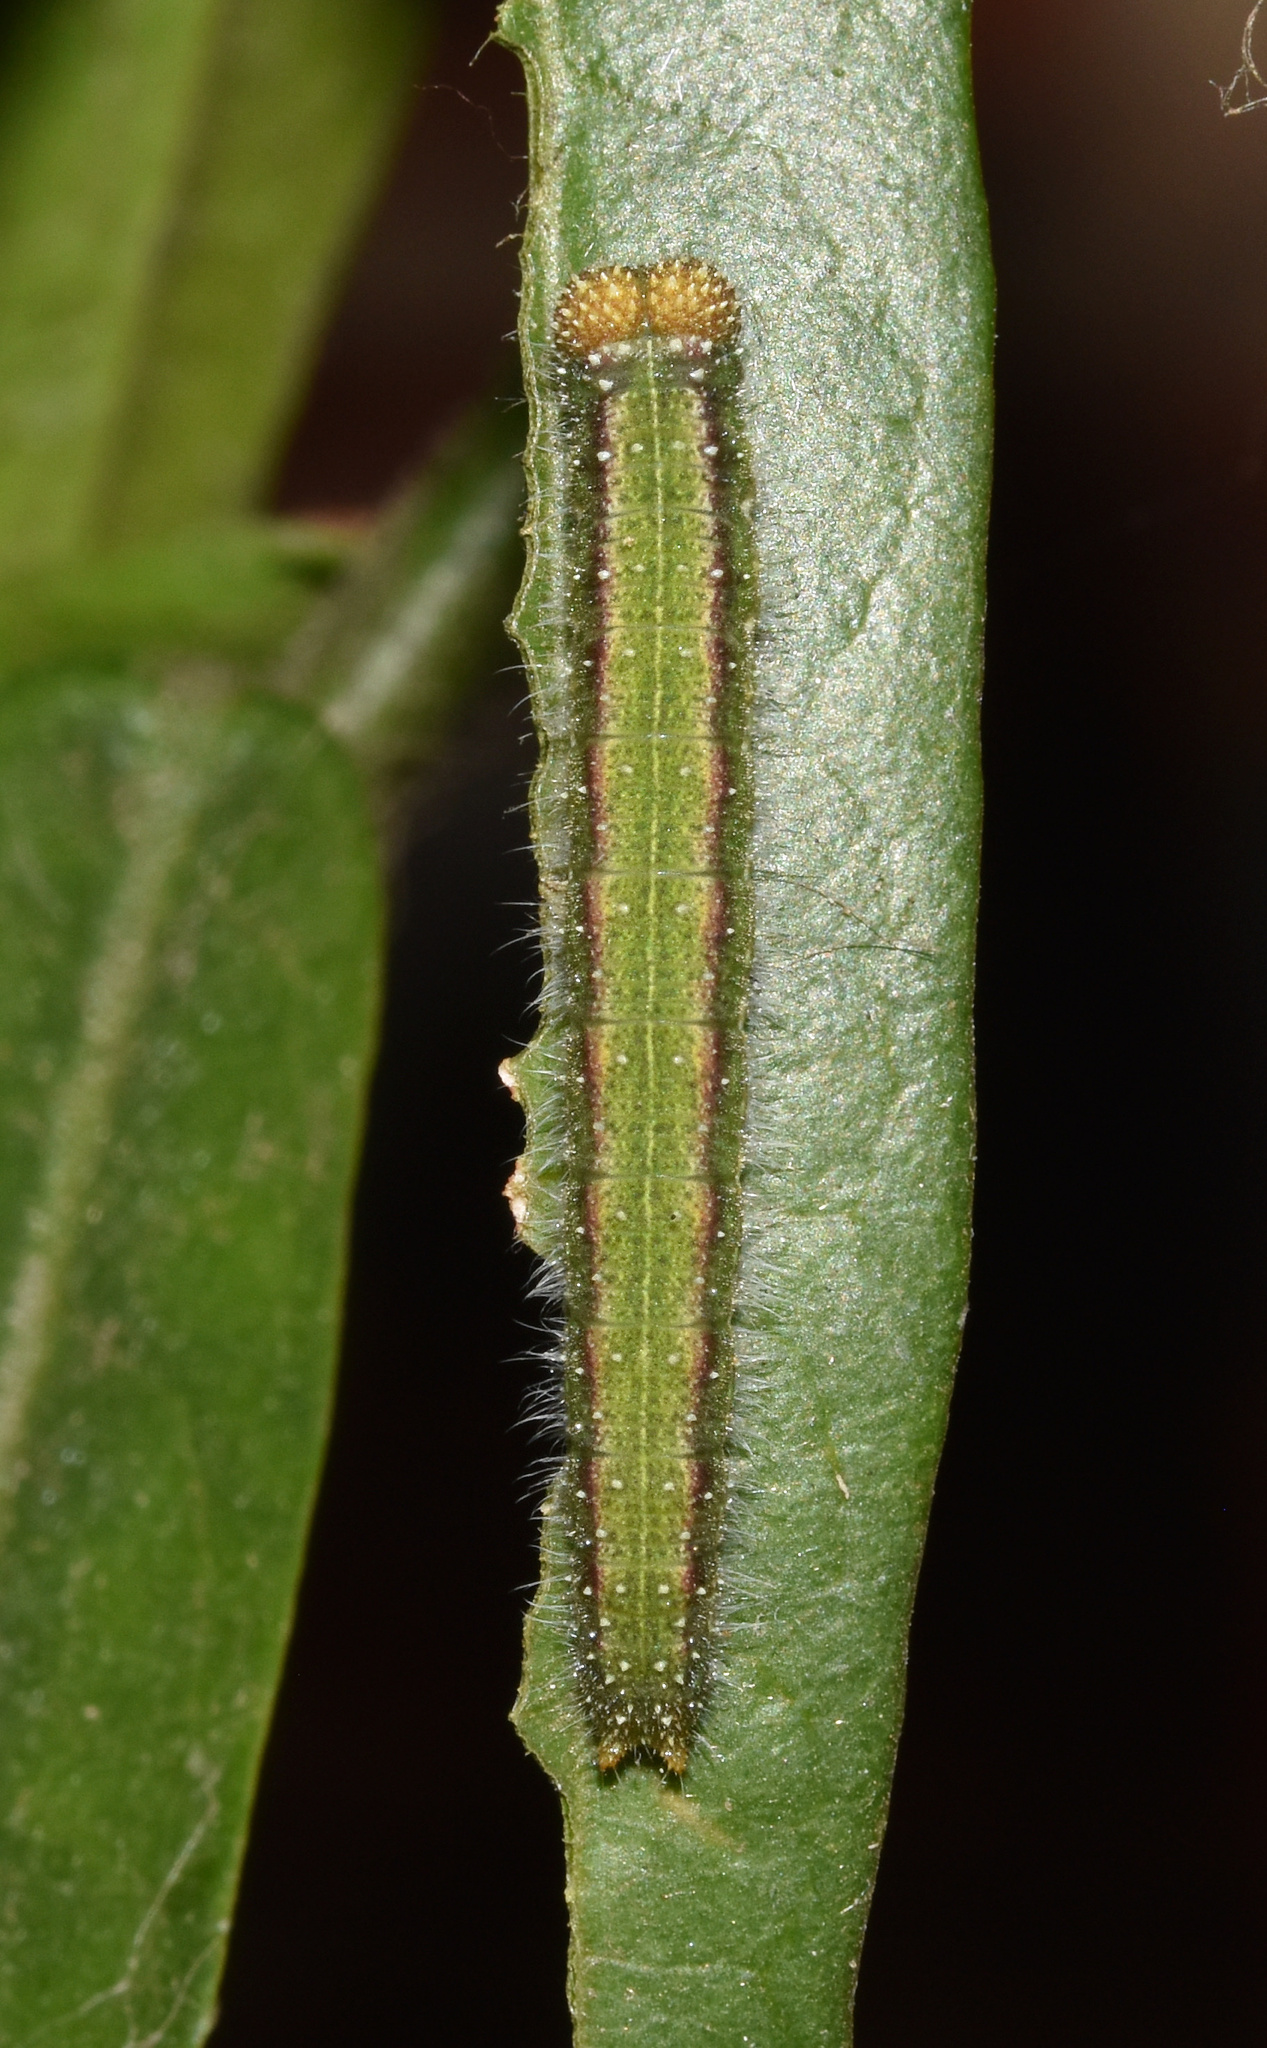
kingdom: Animalia
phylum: Arthropoda
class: Insecta
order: Lepidoptera
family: Pieridae
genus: Dixeia
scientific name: Dixeia pigea
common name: Ant-heap small white
